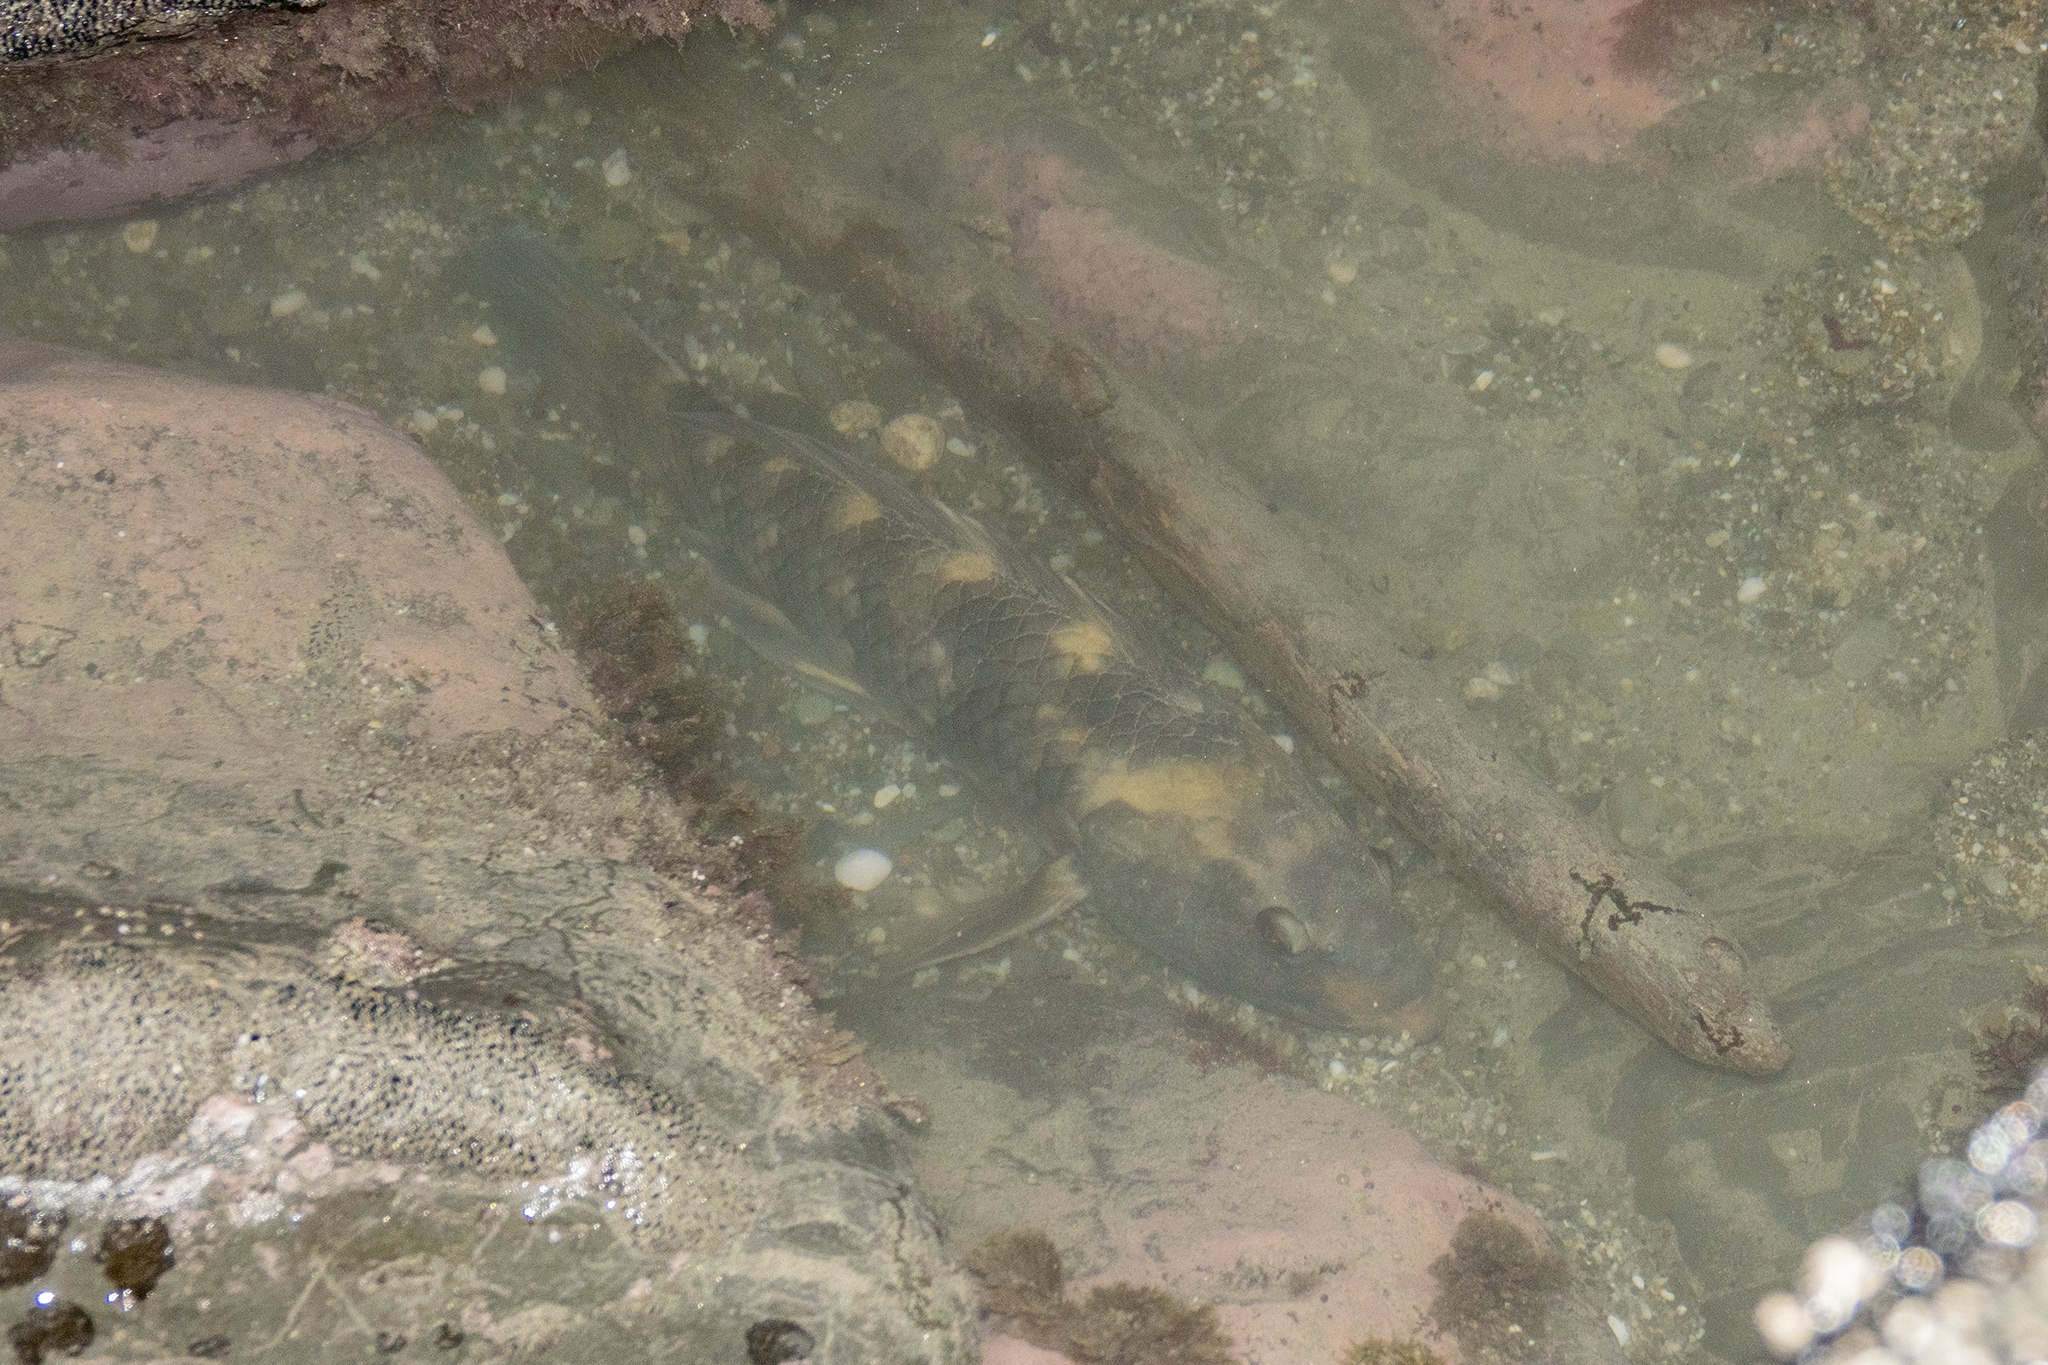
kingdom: Animalia
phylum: Chordata
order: Perciformes
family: Labridae
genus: Notolabrus
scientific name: Notolabrus fucicola
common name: Banded parrotfish
